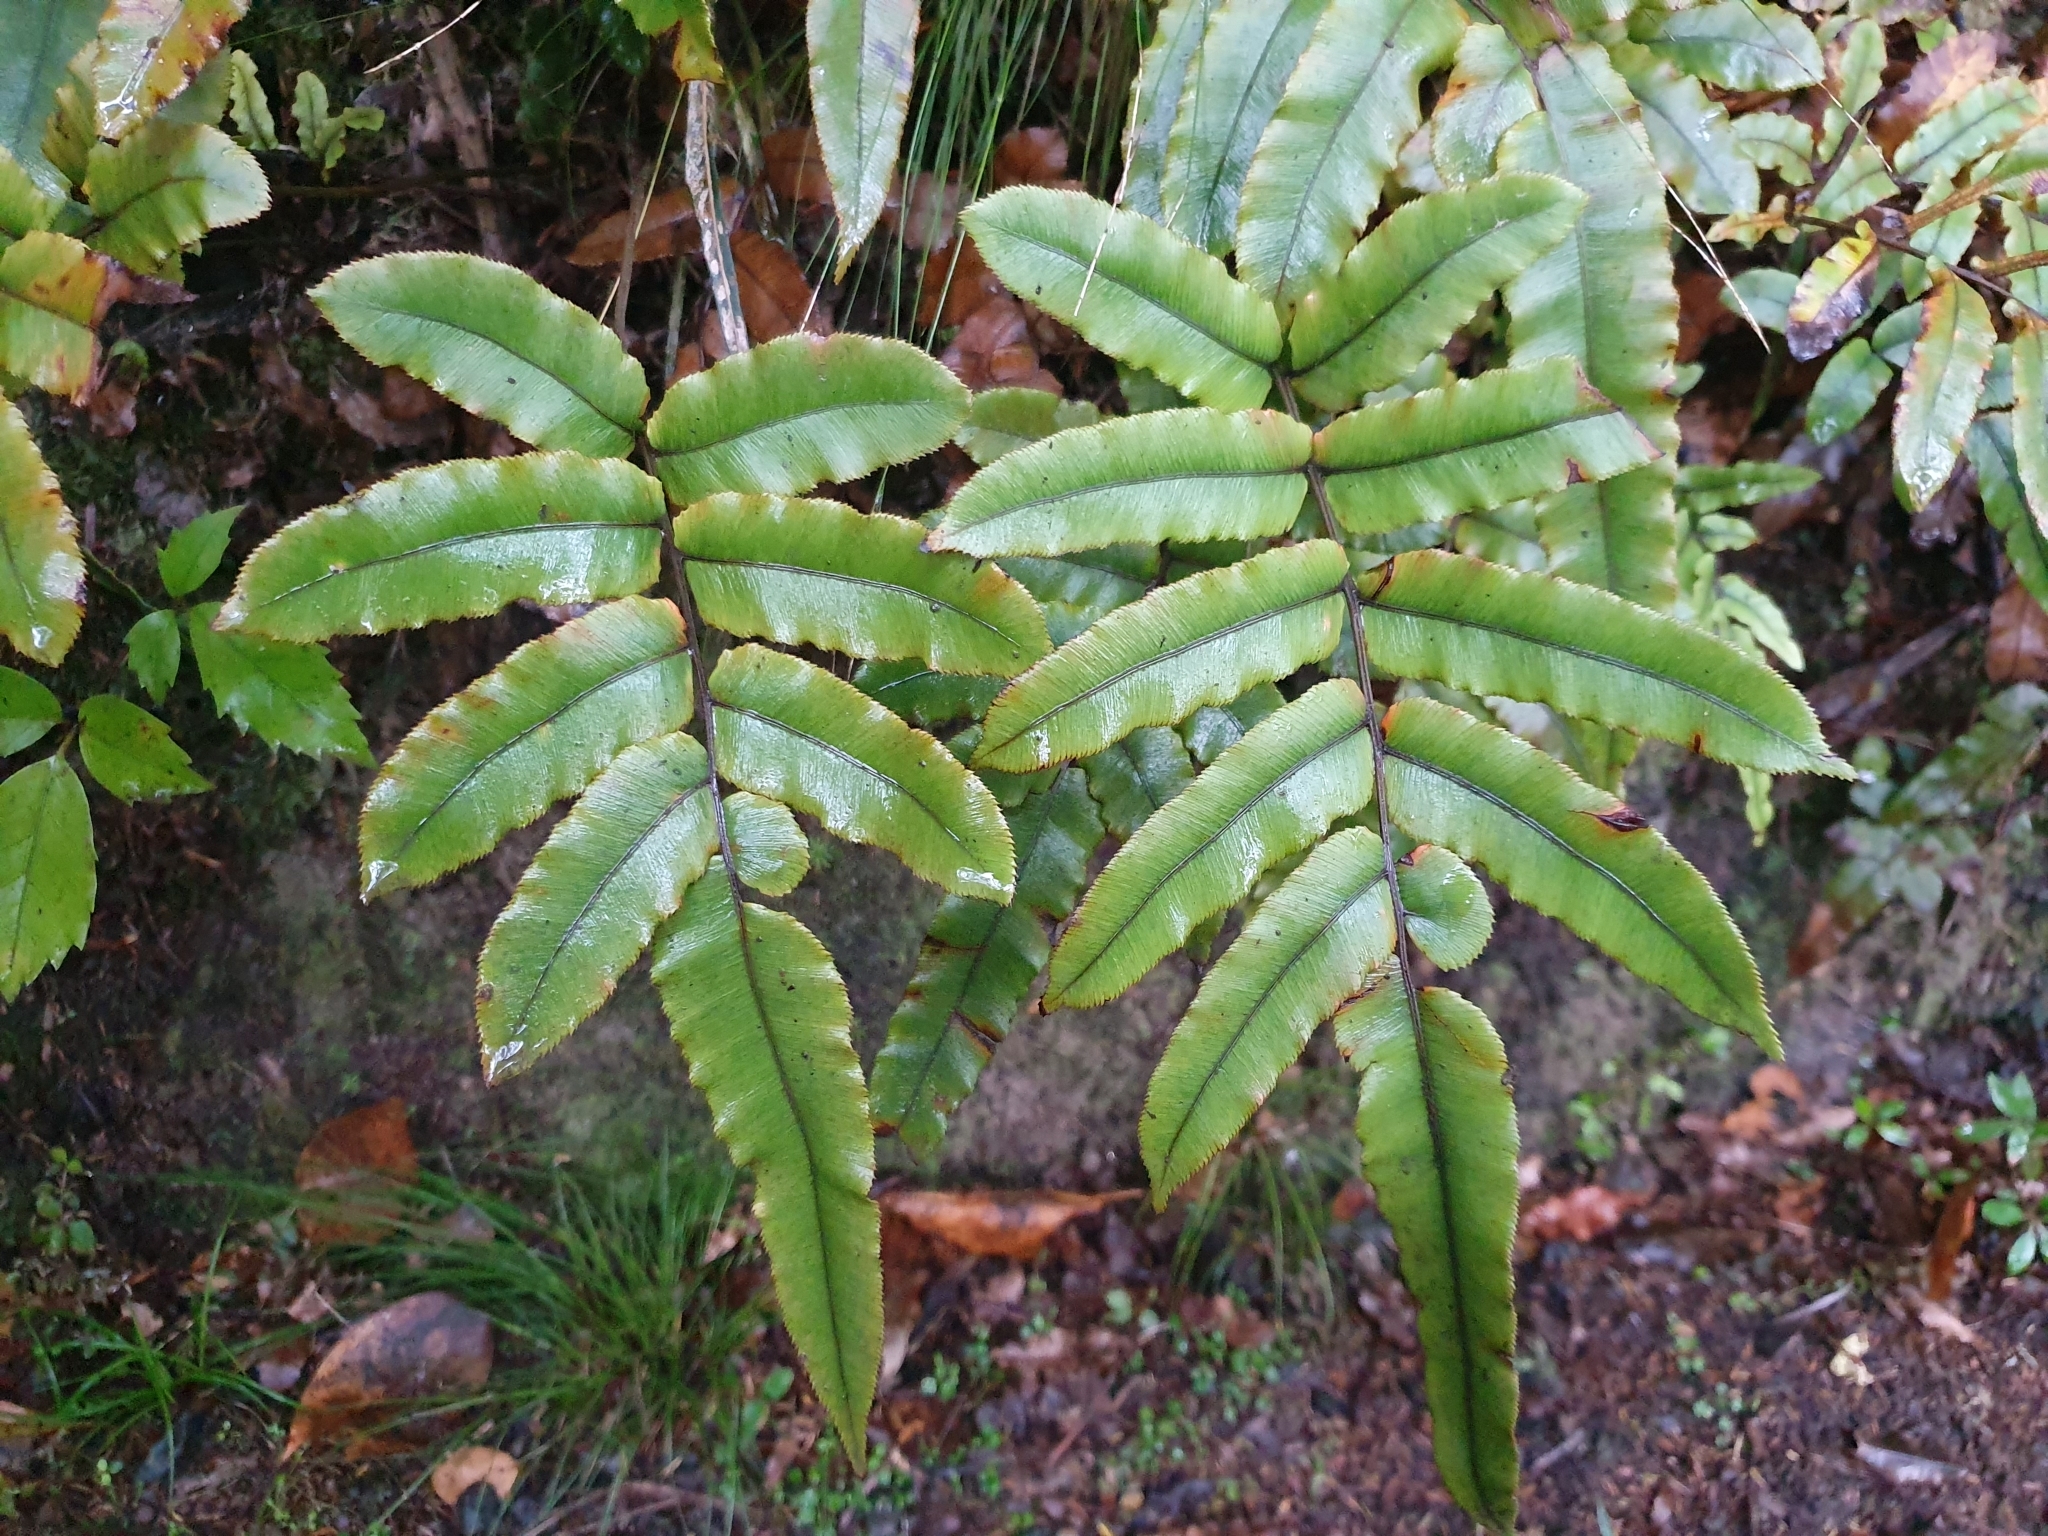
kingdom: Plantae
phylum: Tracheophyta
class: Polypodiopsida
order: Polypodiales
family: Blechnaceae
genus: Parablechnum
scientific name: Parablechnum procerum
